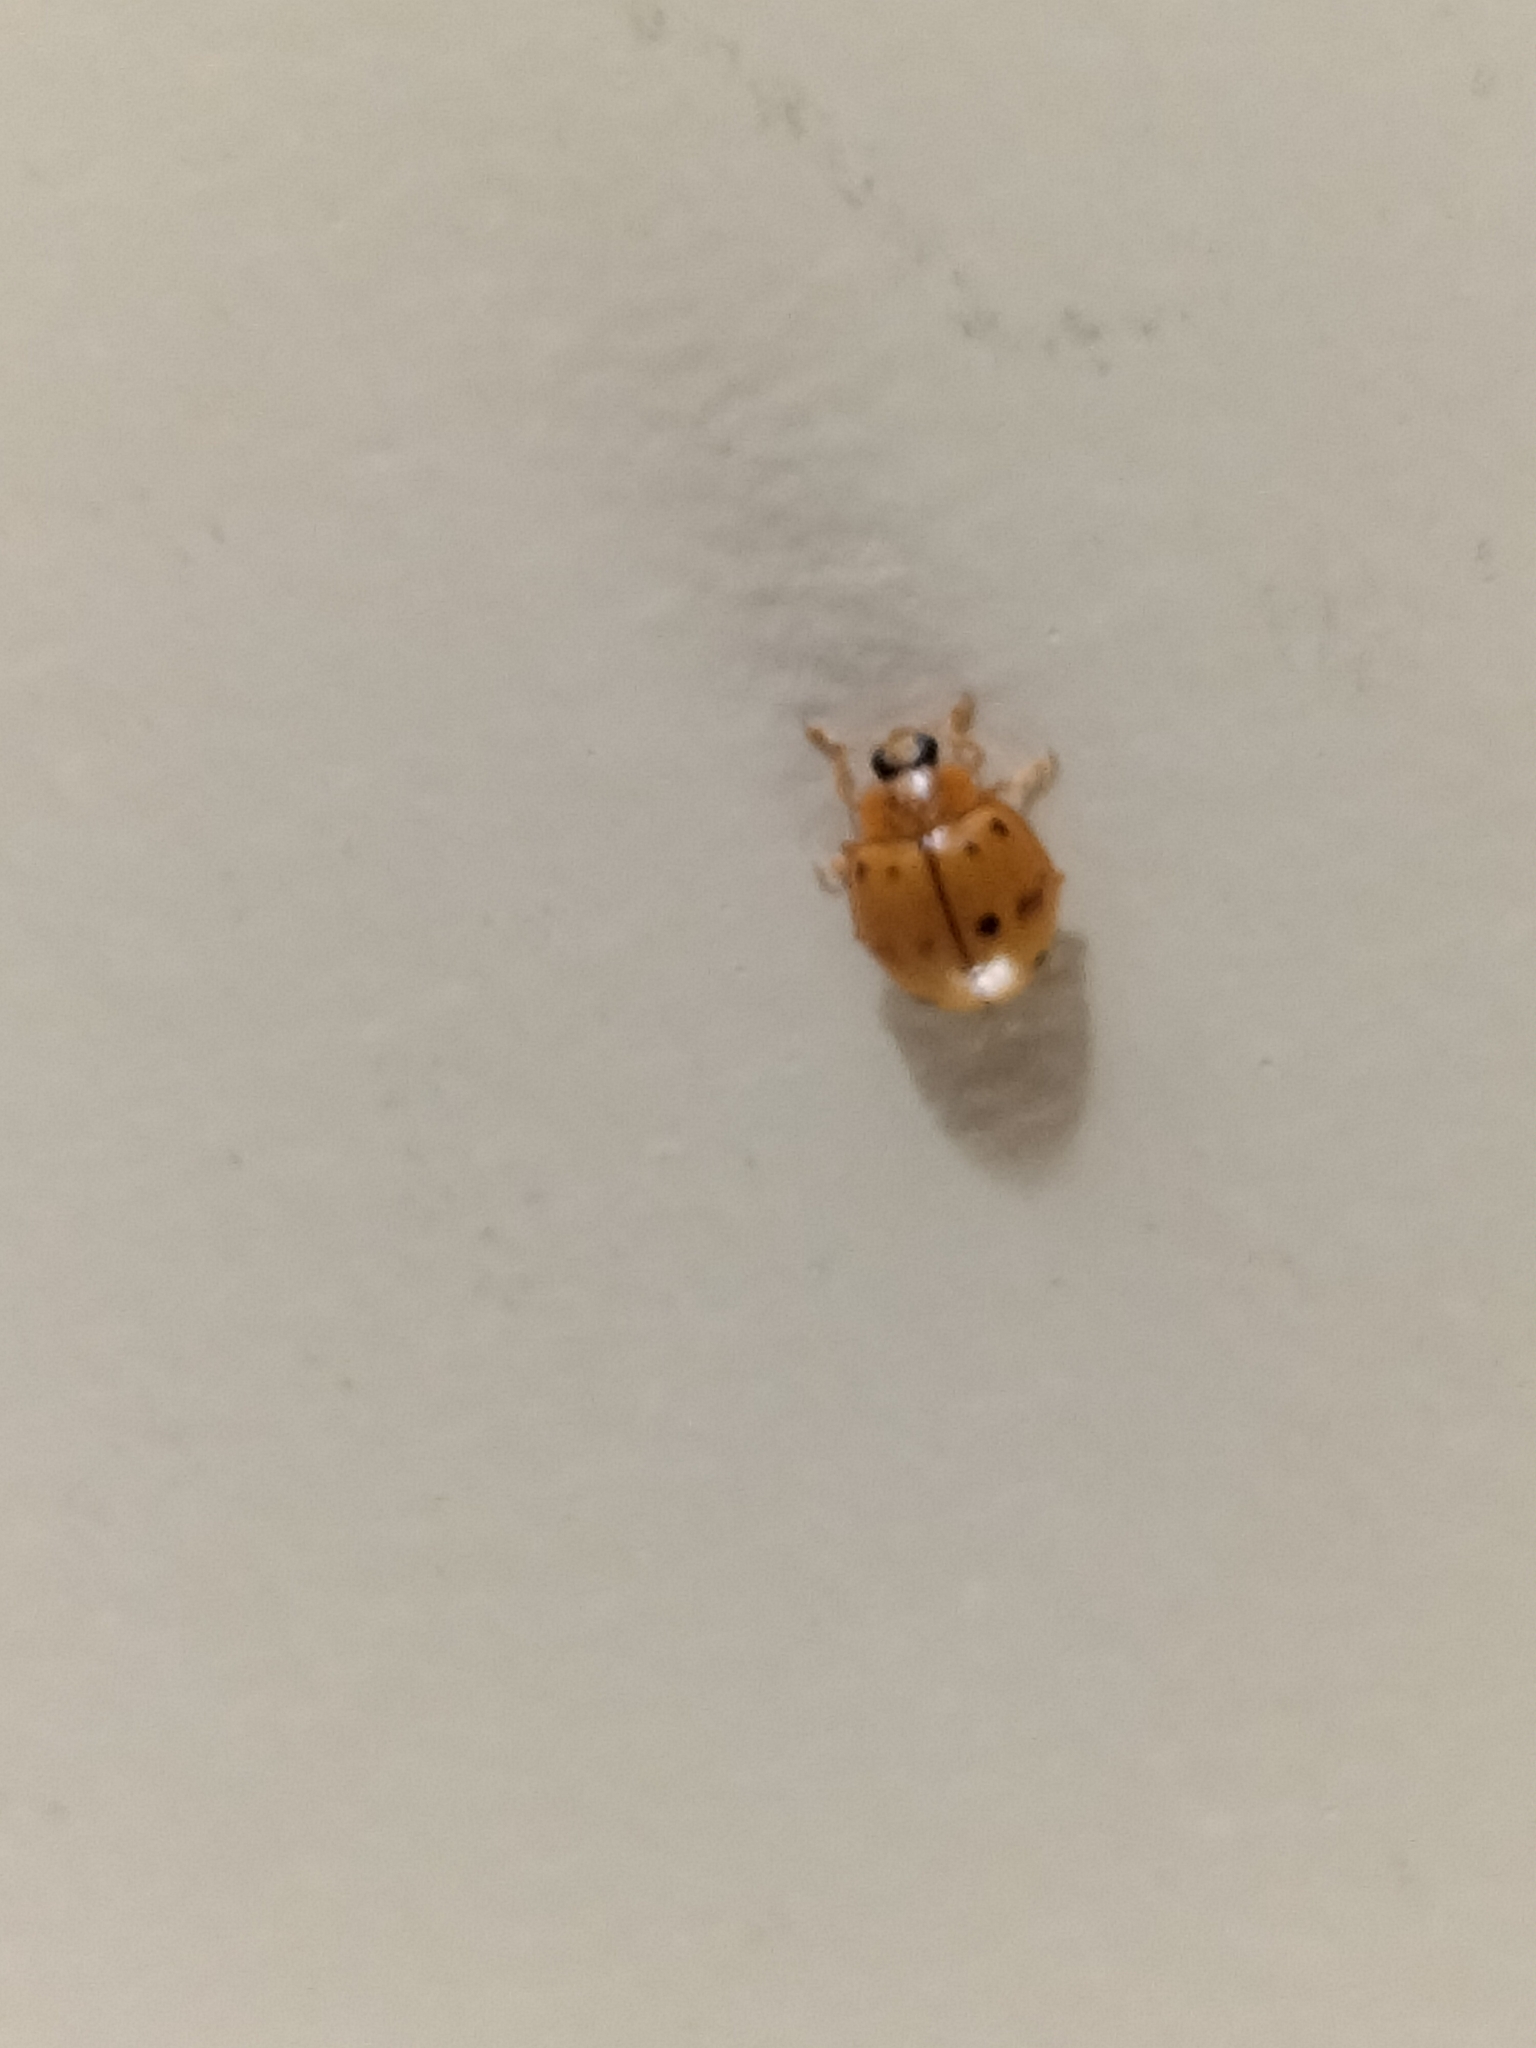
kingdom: Animalia
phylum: Arthropoda
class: Insecta
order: Coleoptera
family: Coccinellidae
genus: Harmonia
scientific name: Harmonia octomaculata
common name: Lady beetle
